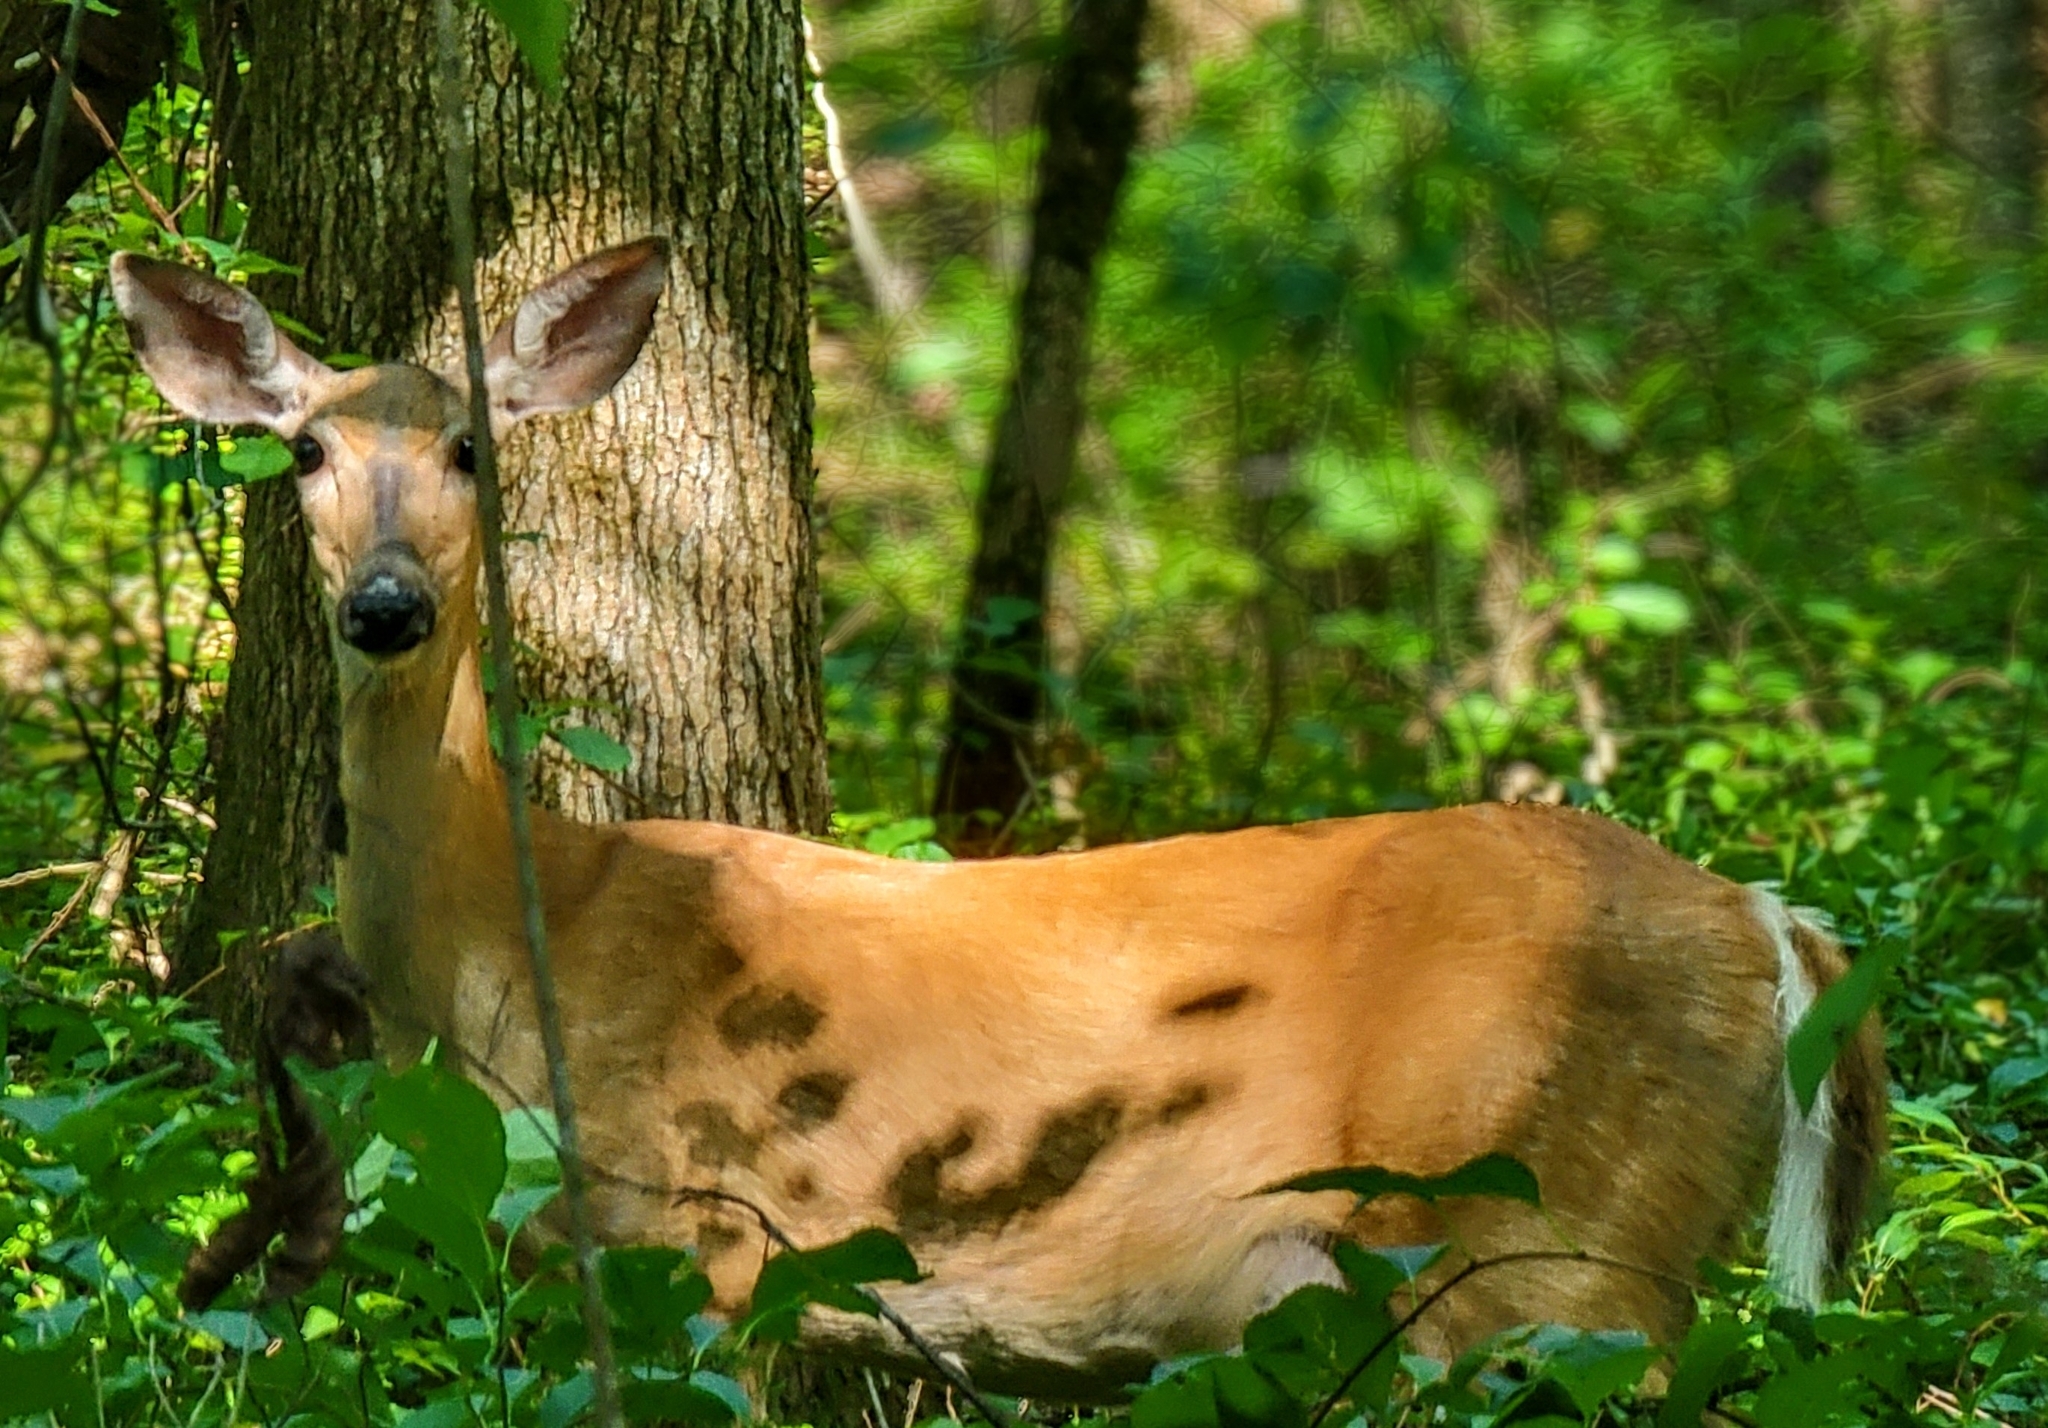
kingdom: Animalia
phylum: Chordata
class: Mammalia
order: Artiodactyla
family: Cervidae
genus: Odocoileus
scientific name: Odocoileus virginianus
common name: White-tailed deer
